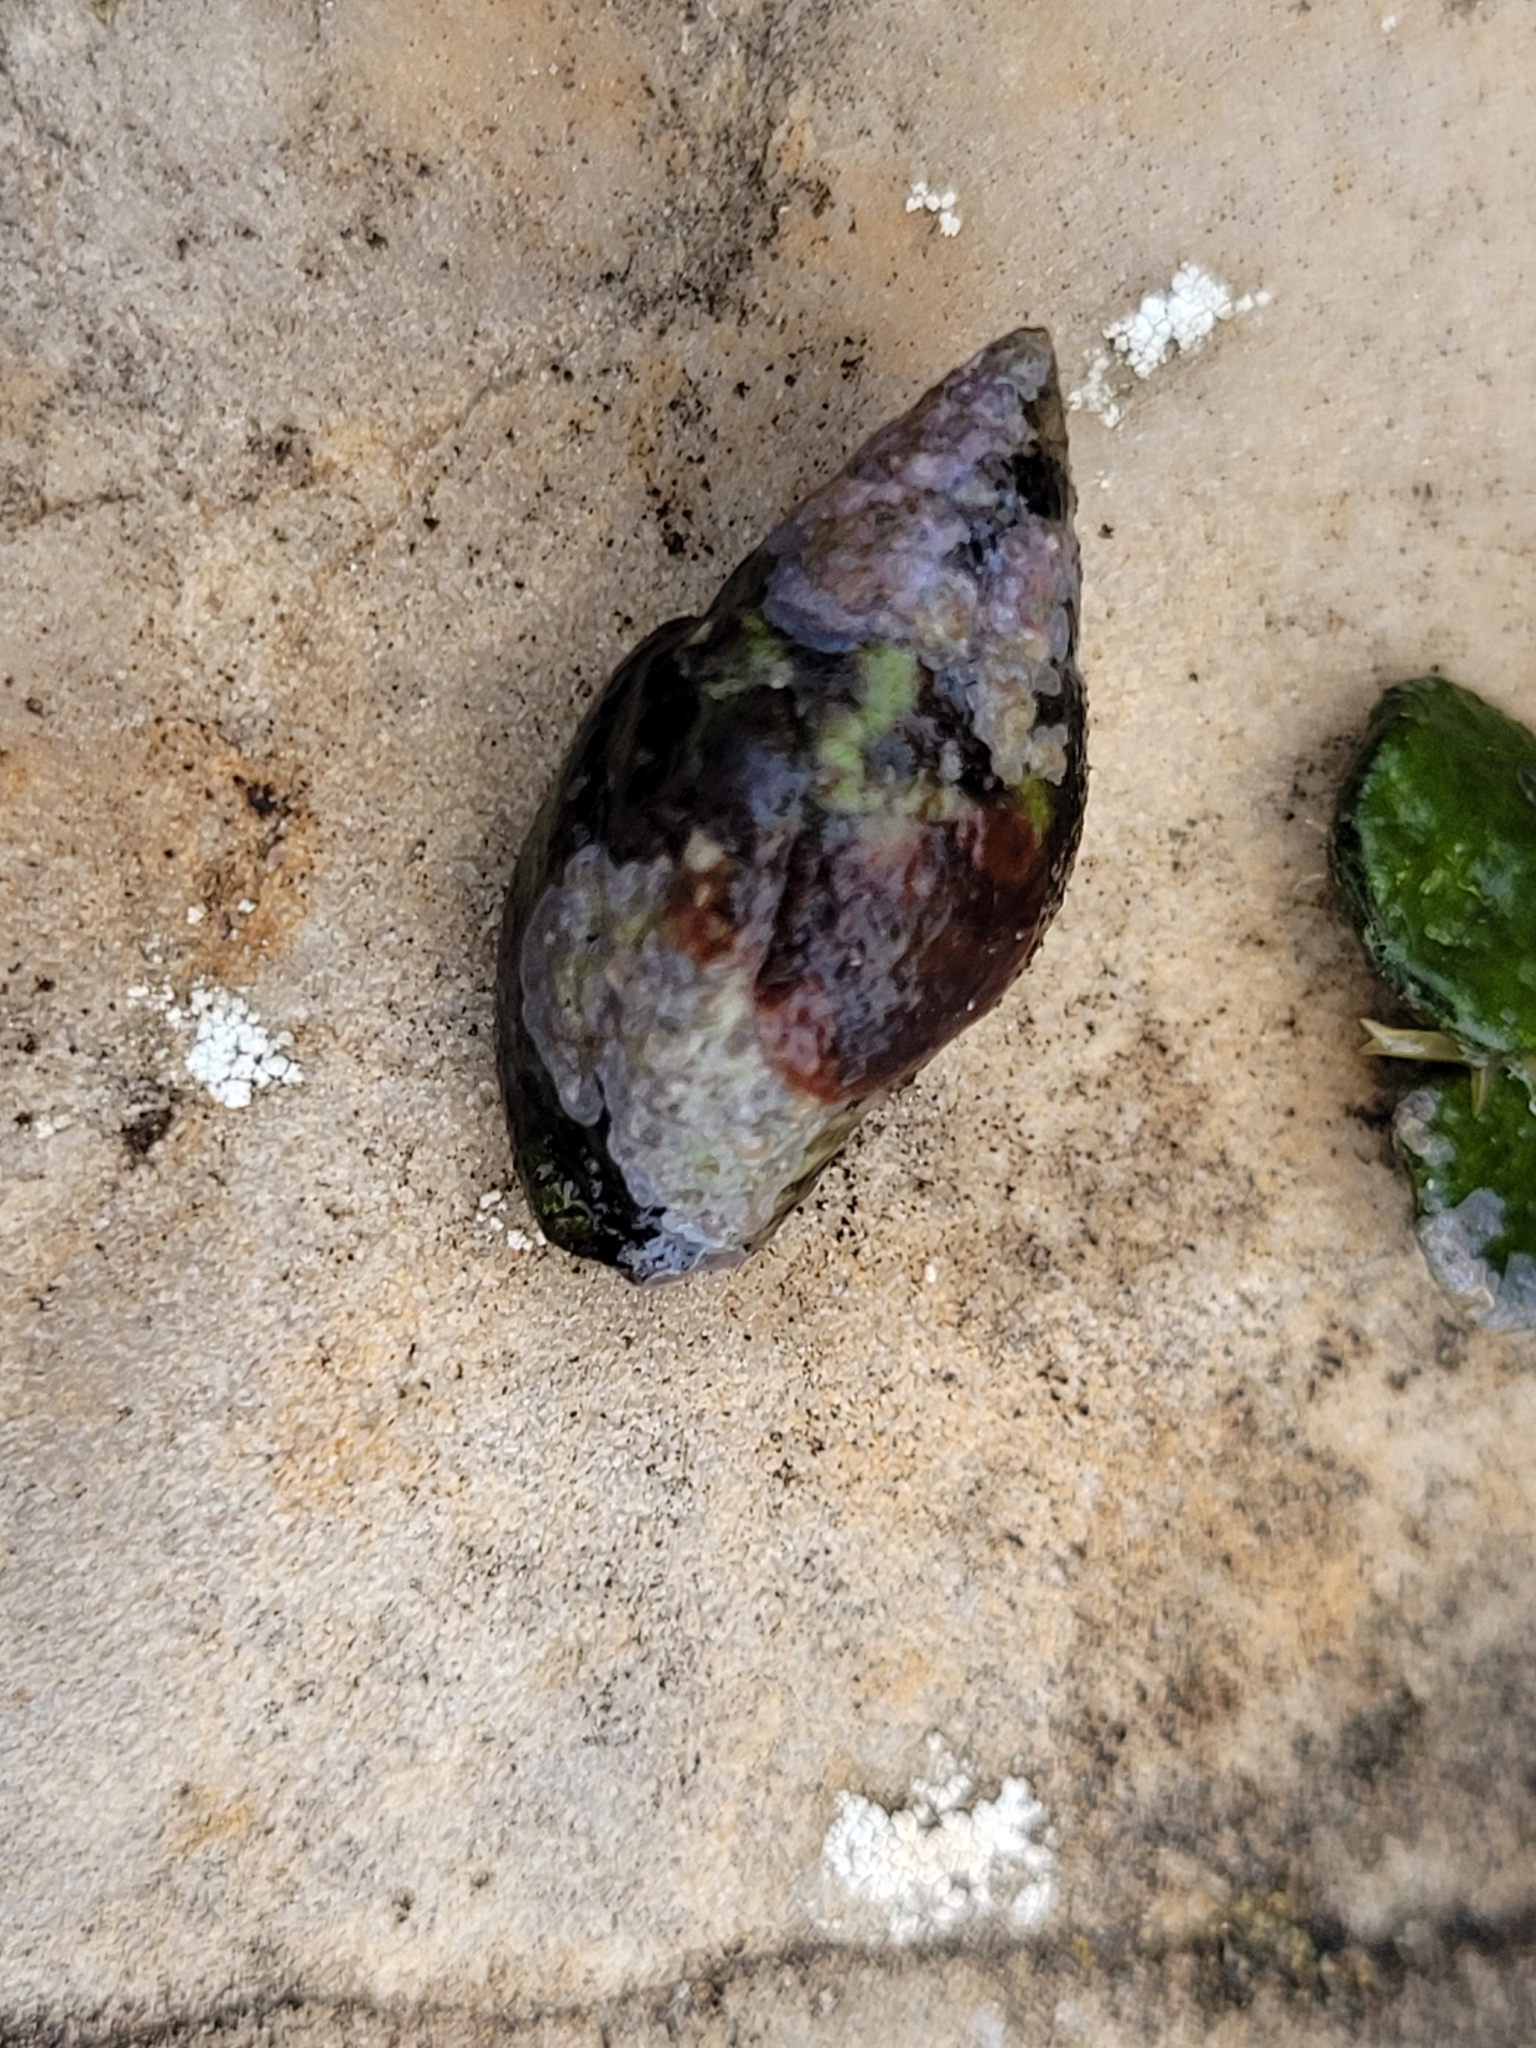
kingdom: Animalia
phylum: Mollusca
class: Gastropoda
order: Neogastropoda
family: Pisaniidae
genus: Pisania
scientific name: Pisania striata
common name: Spotted pisania
